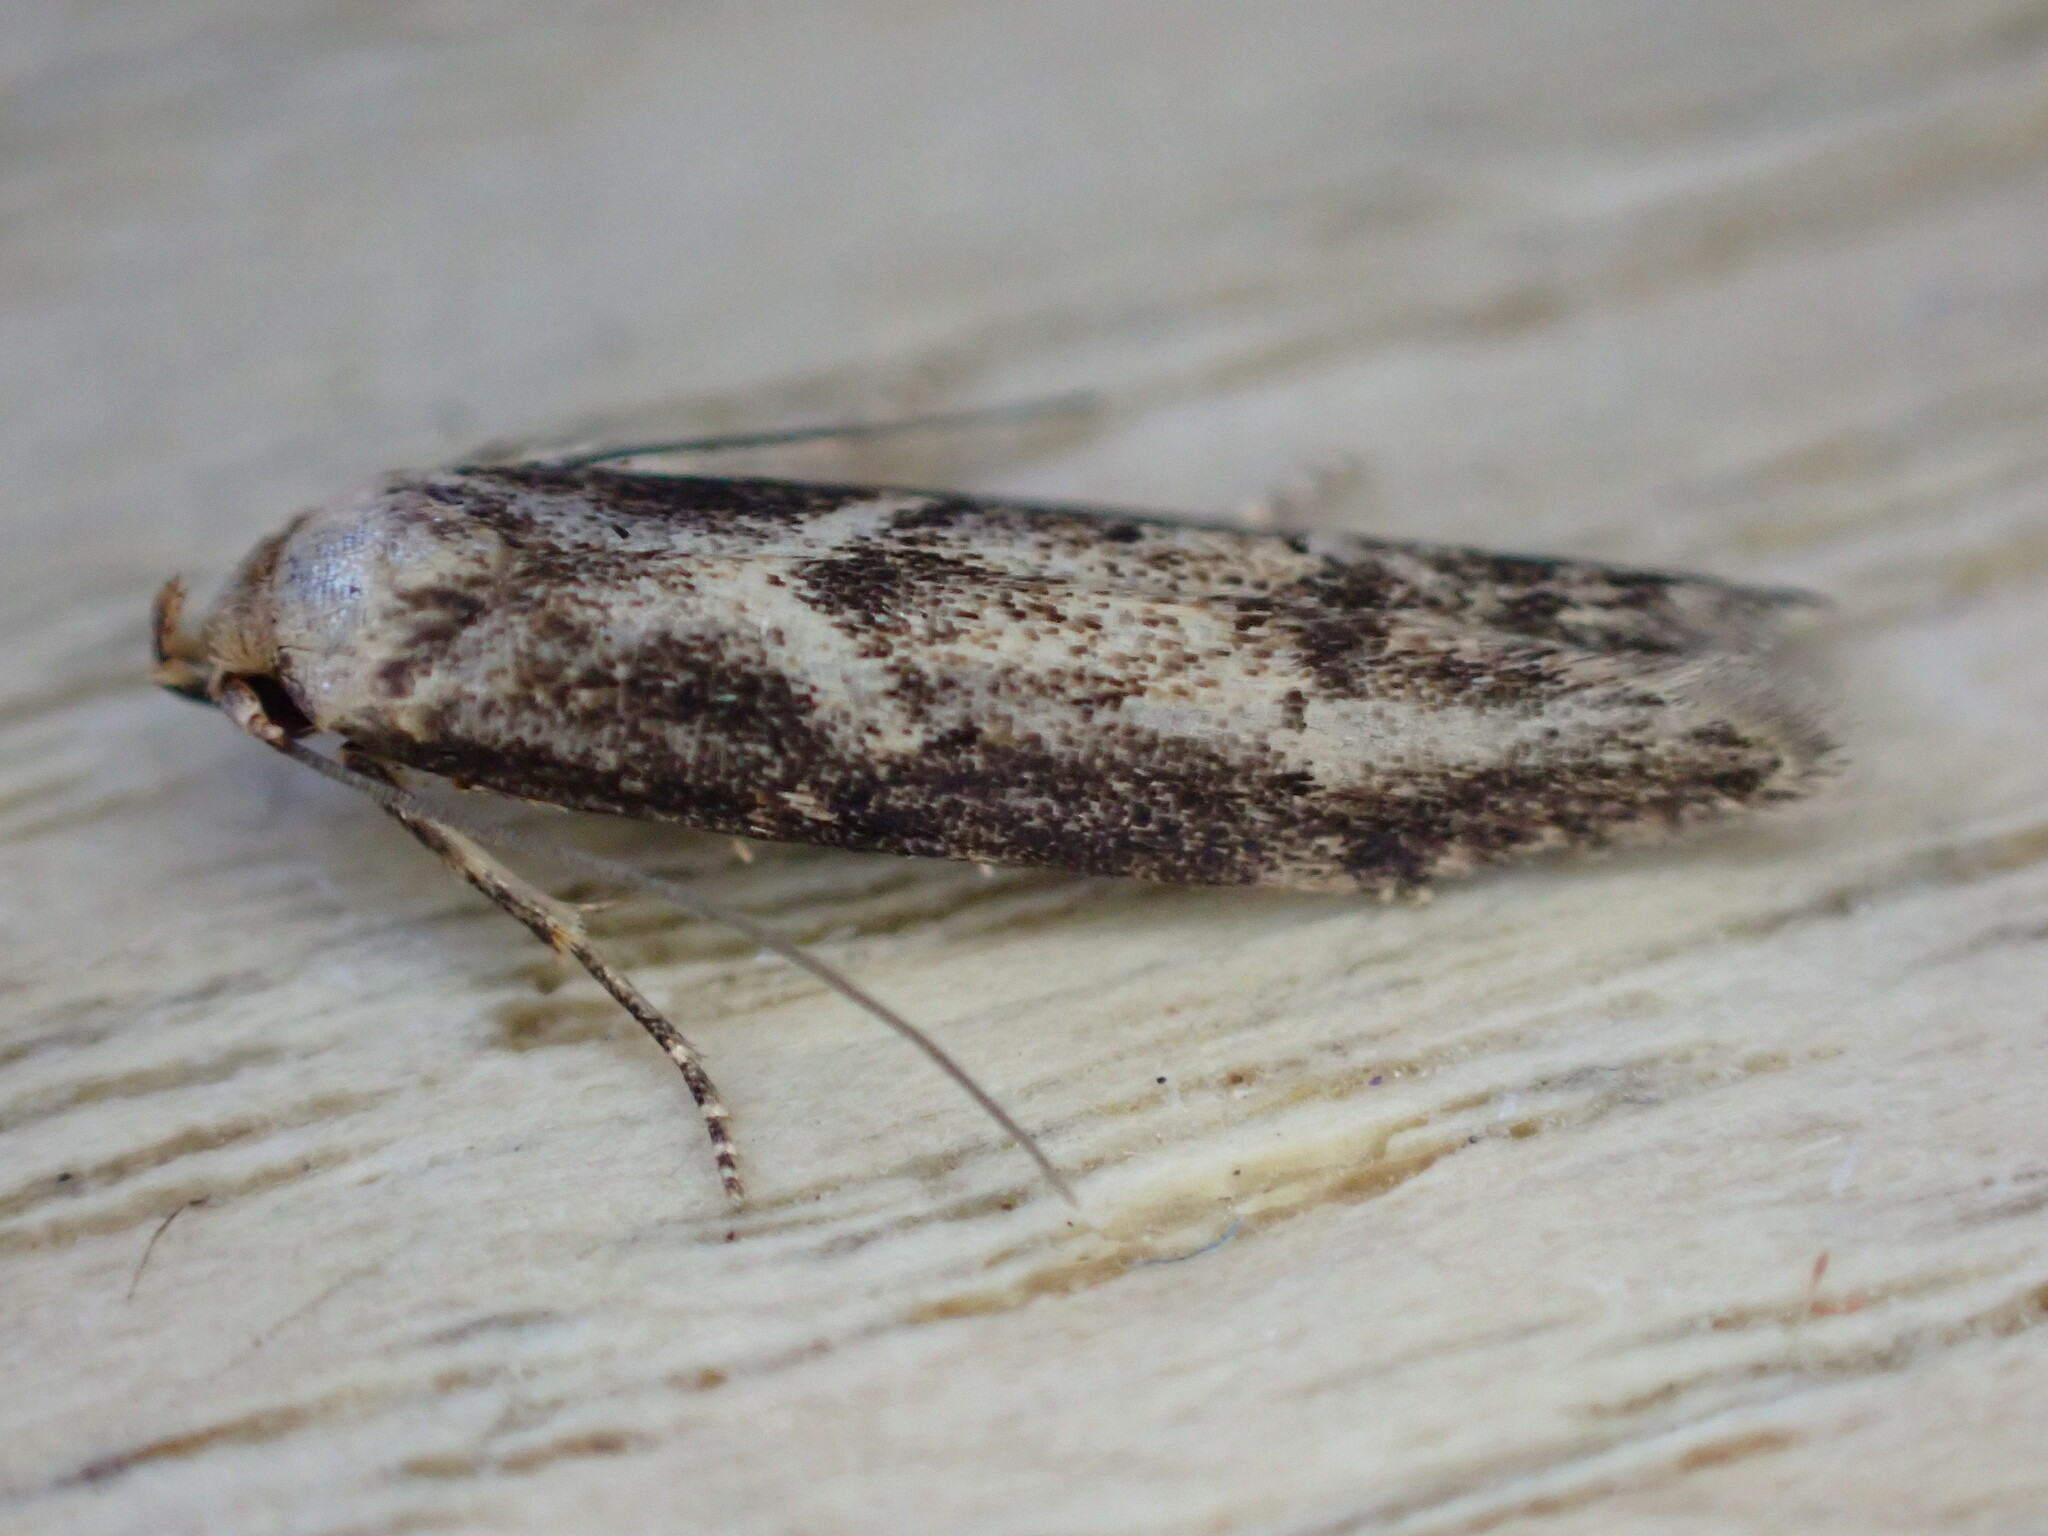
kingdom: Animalia
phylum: Arthropoda
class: Insecta
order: Lepidoptera
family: Blastobasidae
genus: Blastobasis
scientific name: Blastobasis adustella
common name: Dingy dowd
